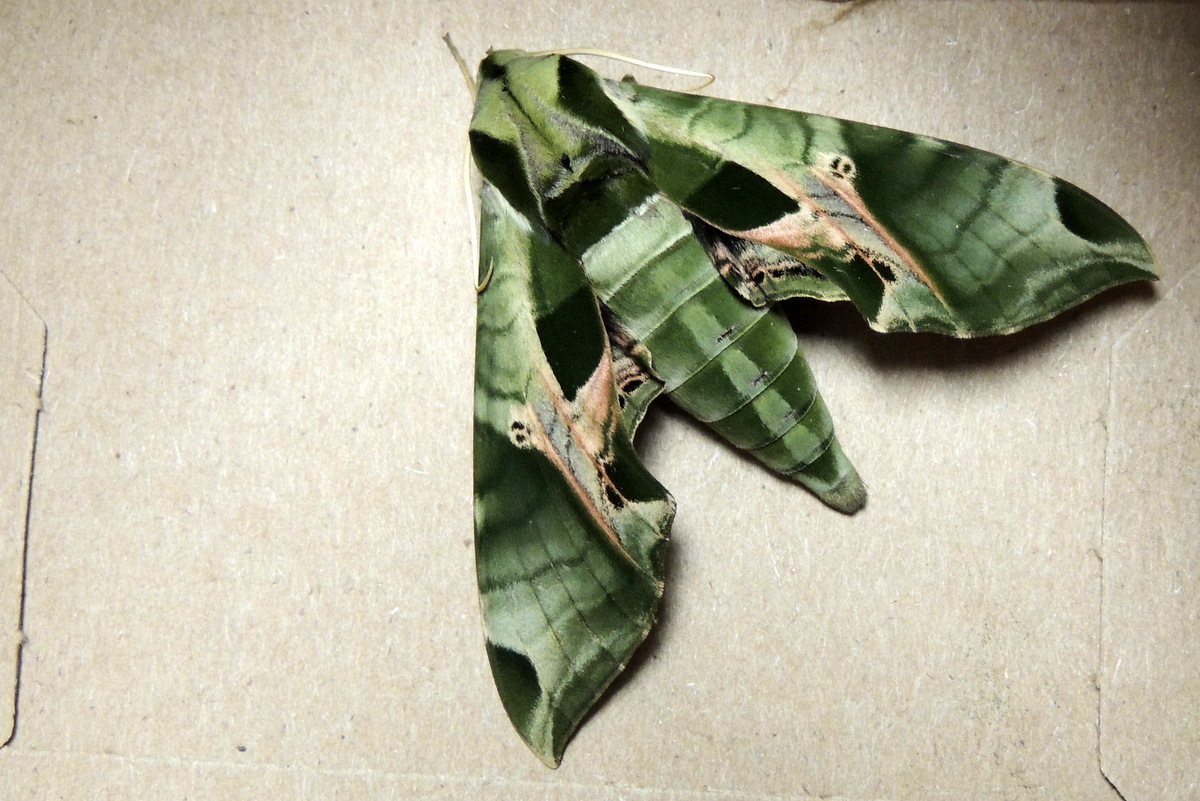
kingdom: Animalia
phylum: Arthropoda
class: Insecta
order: Lepidoptera
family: Sphingidae
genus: Eumorpha
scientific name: Eumorpha pandorus
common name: Pandora sphinx
